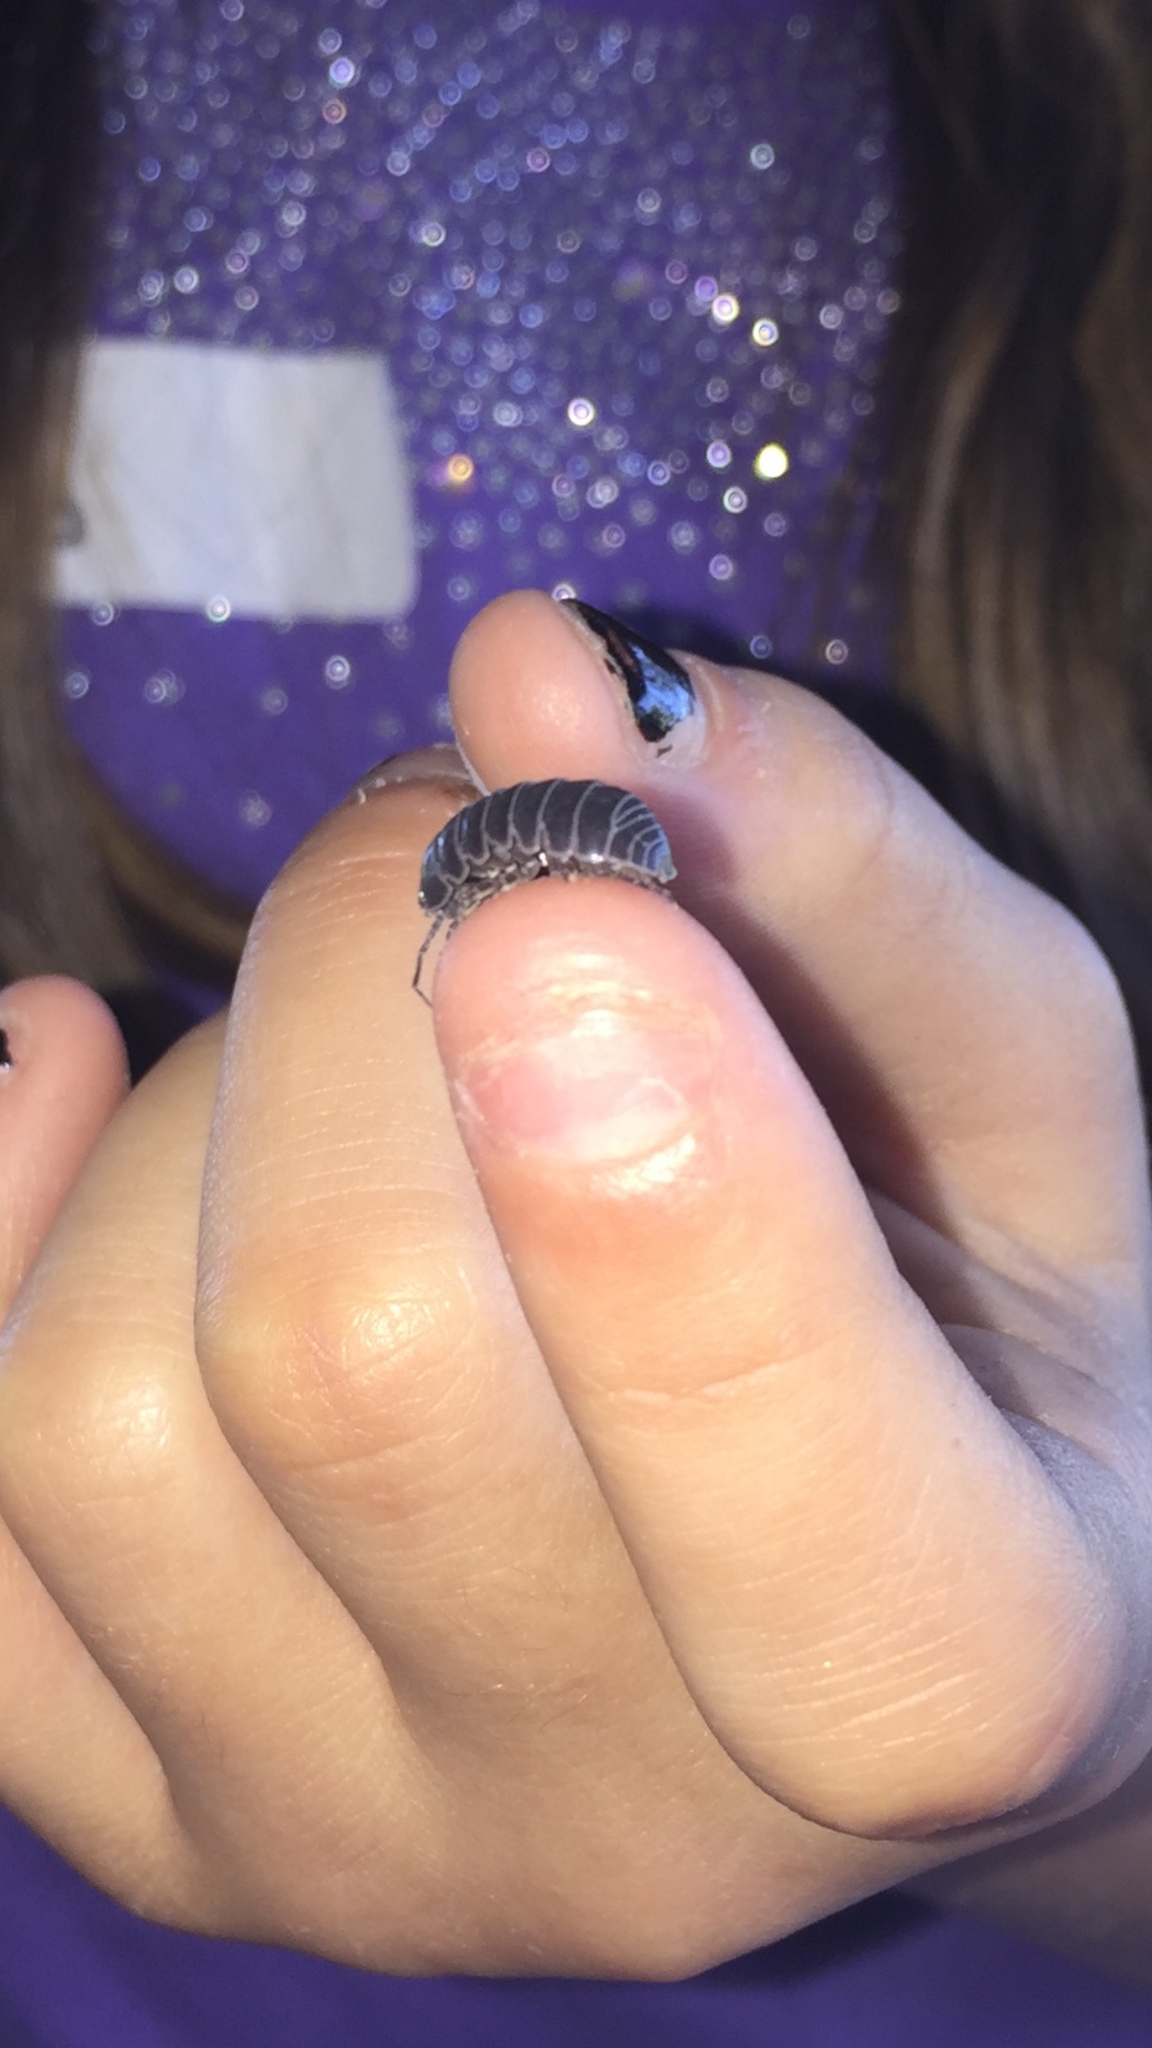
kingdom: Animalia
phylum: Arthropoda
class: Malacostraca
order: Isopoda
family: Armadillidiidae
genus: Armadillidium
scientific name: Armadillidium vulgare
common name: Common pill woodlouse
